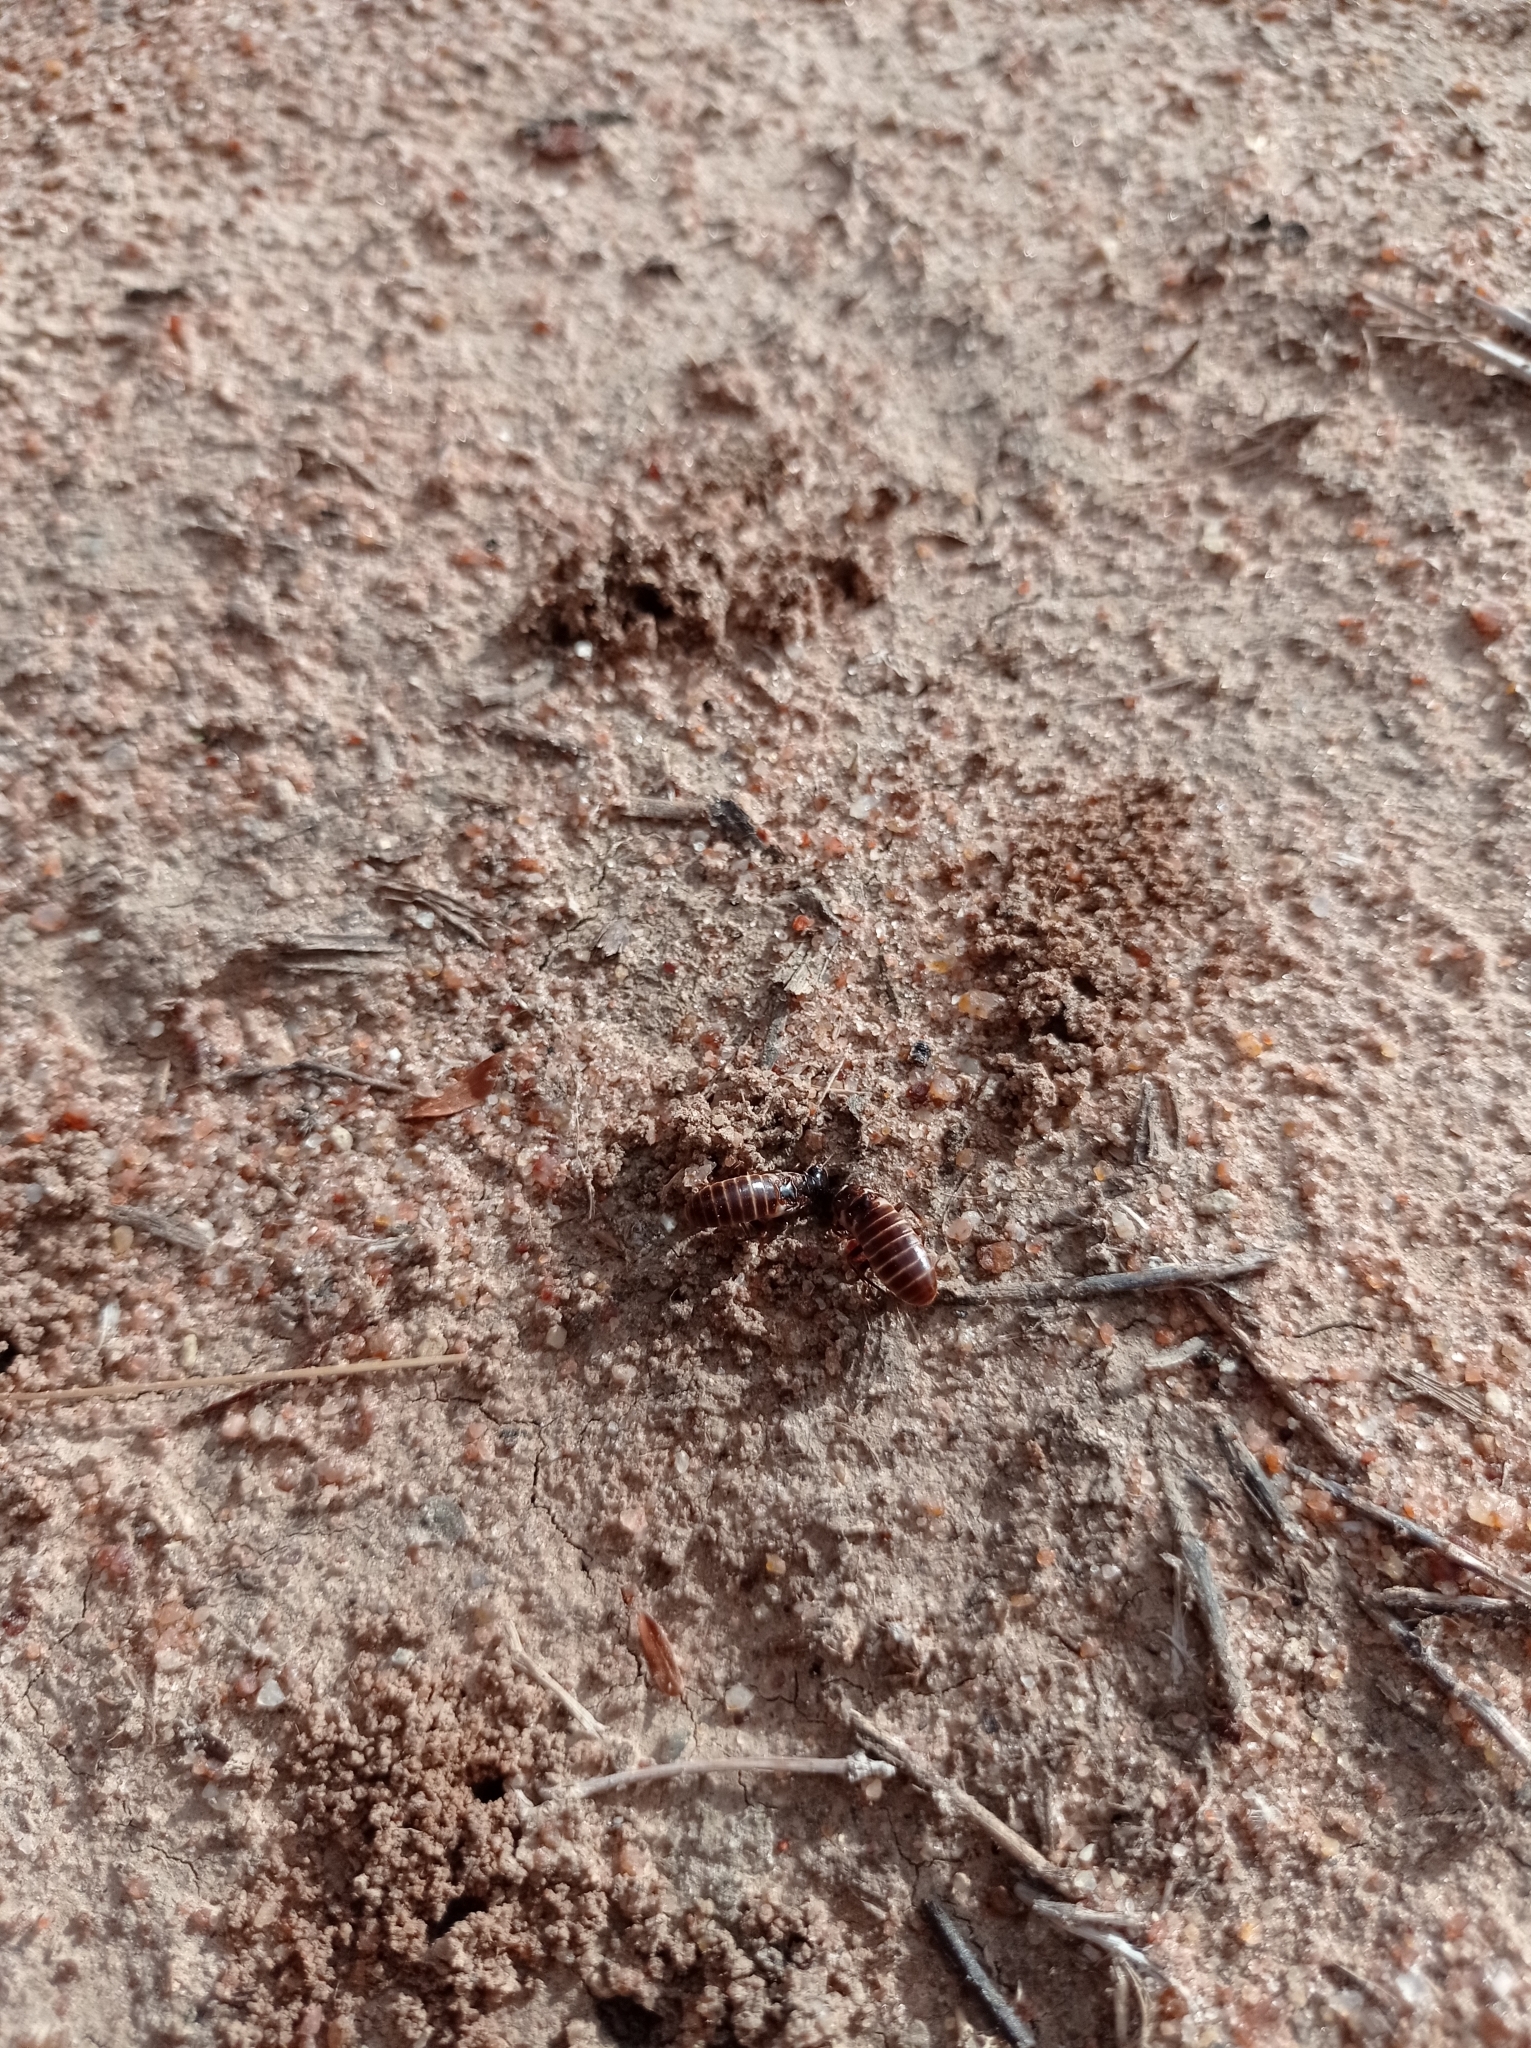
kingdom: Animalia
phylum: Arthropoda
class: Insecta
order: Blattodea
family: Hodotermitidae
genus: Hodotermes
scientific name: Hodotermes mossambicus
